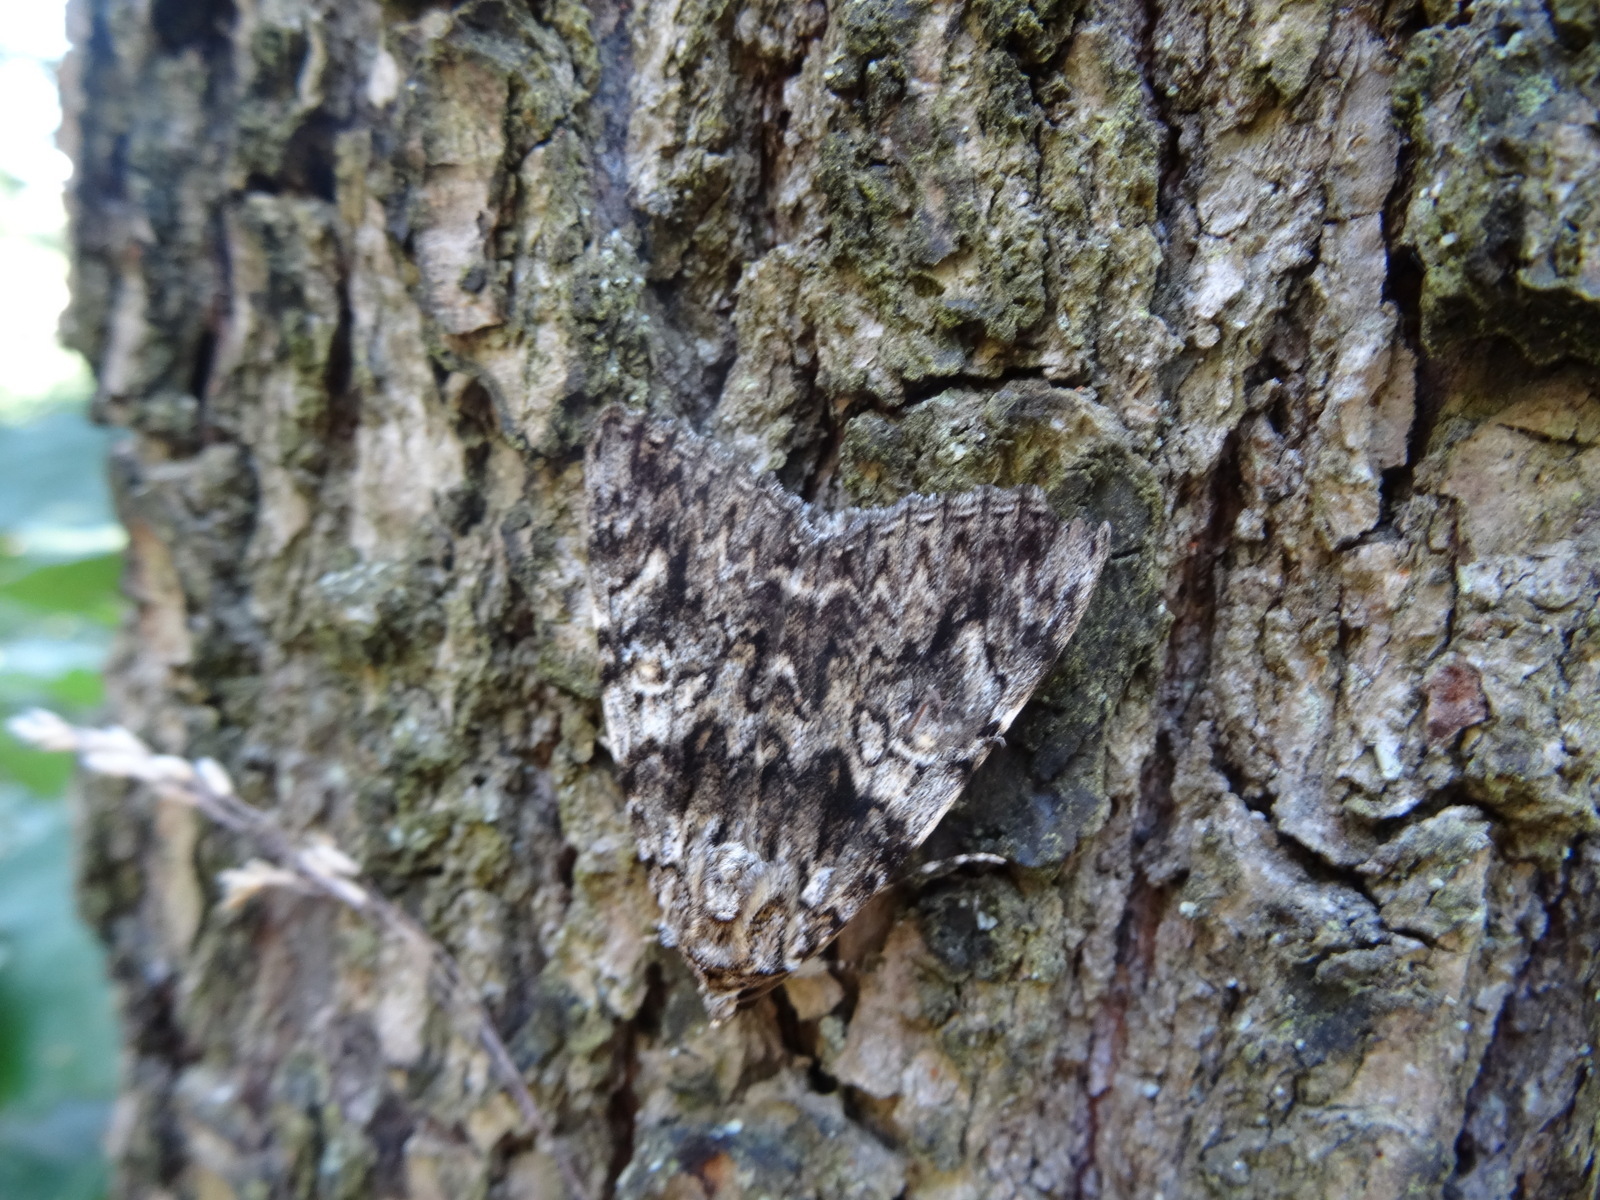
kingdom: Animalia
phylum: Arthropoda
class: Insecta
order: Lepidoptera
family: Erebidae
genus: Catocala
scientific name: Catocala promissa
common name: Light crimson underwing
